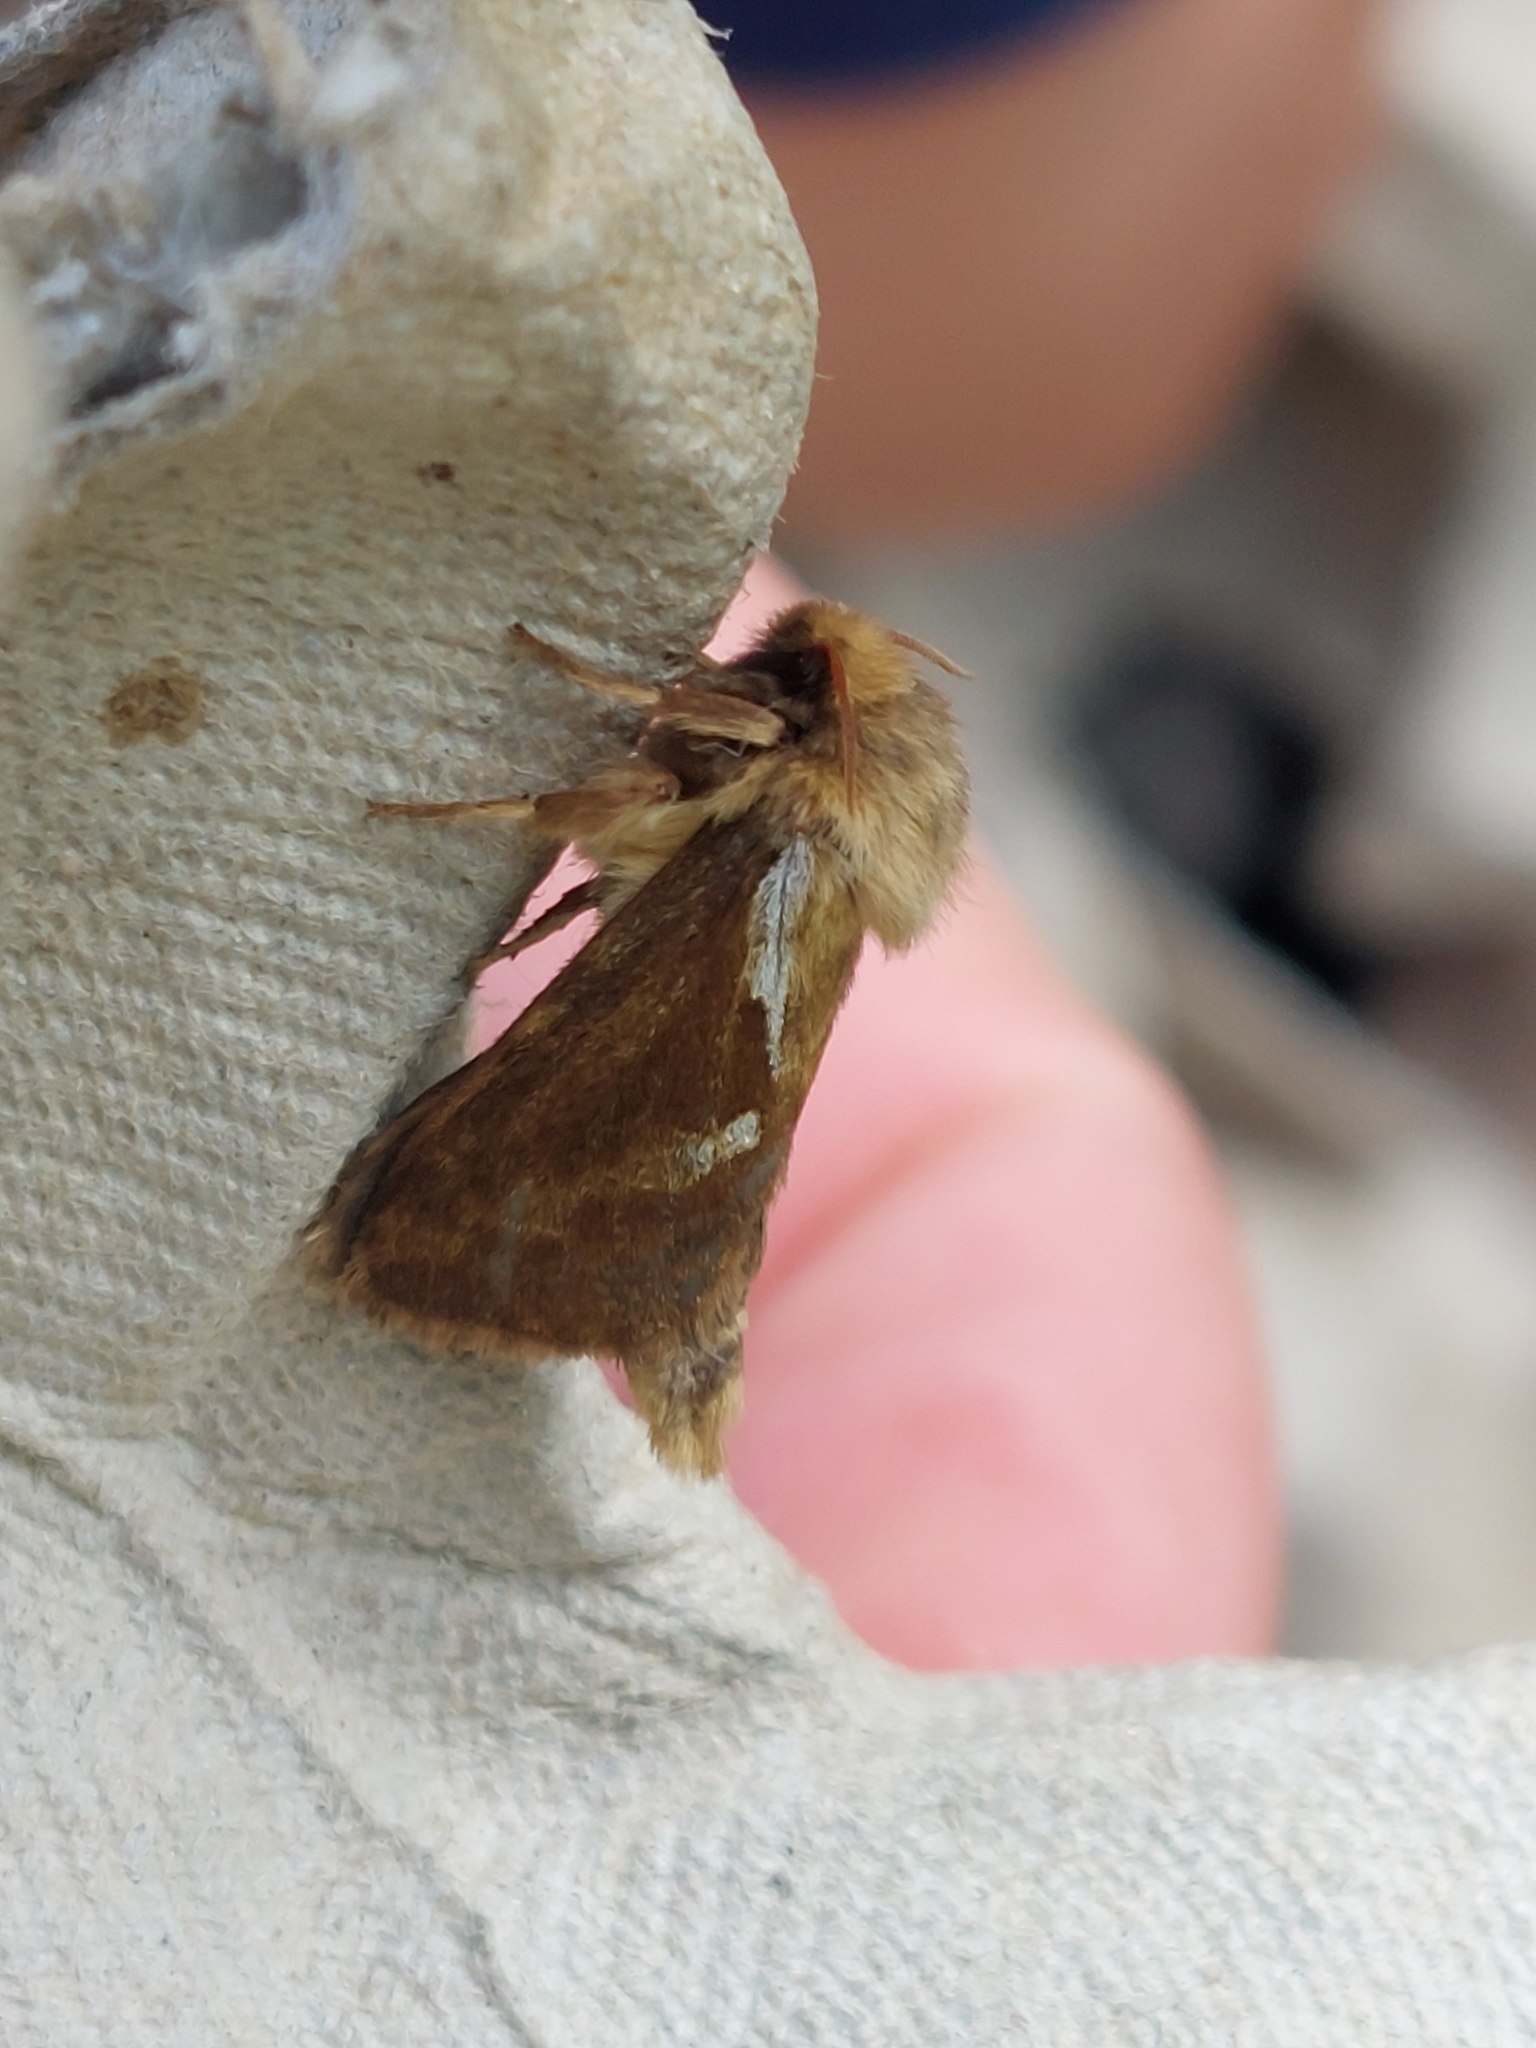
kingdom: Animalia
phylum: Arthropoda
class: Insecta
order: Lepidoptera
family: Hepialidae
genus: Korscheltellus
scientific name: Korscheltellus lupulina
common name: Common swift
